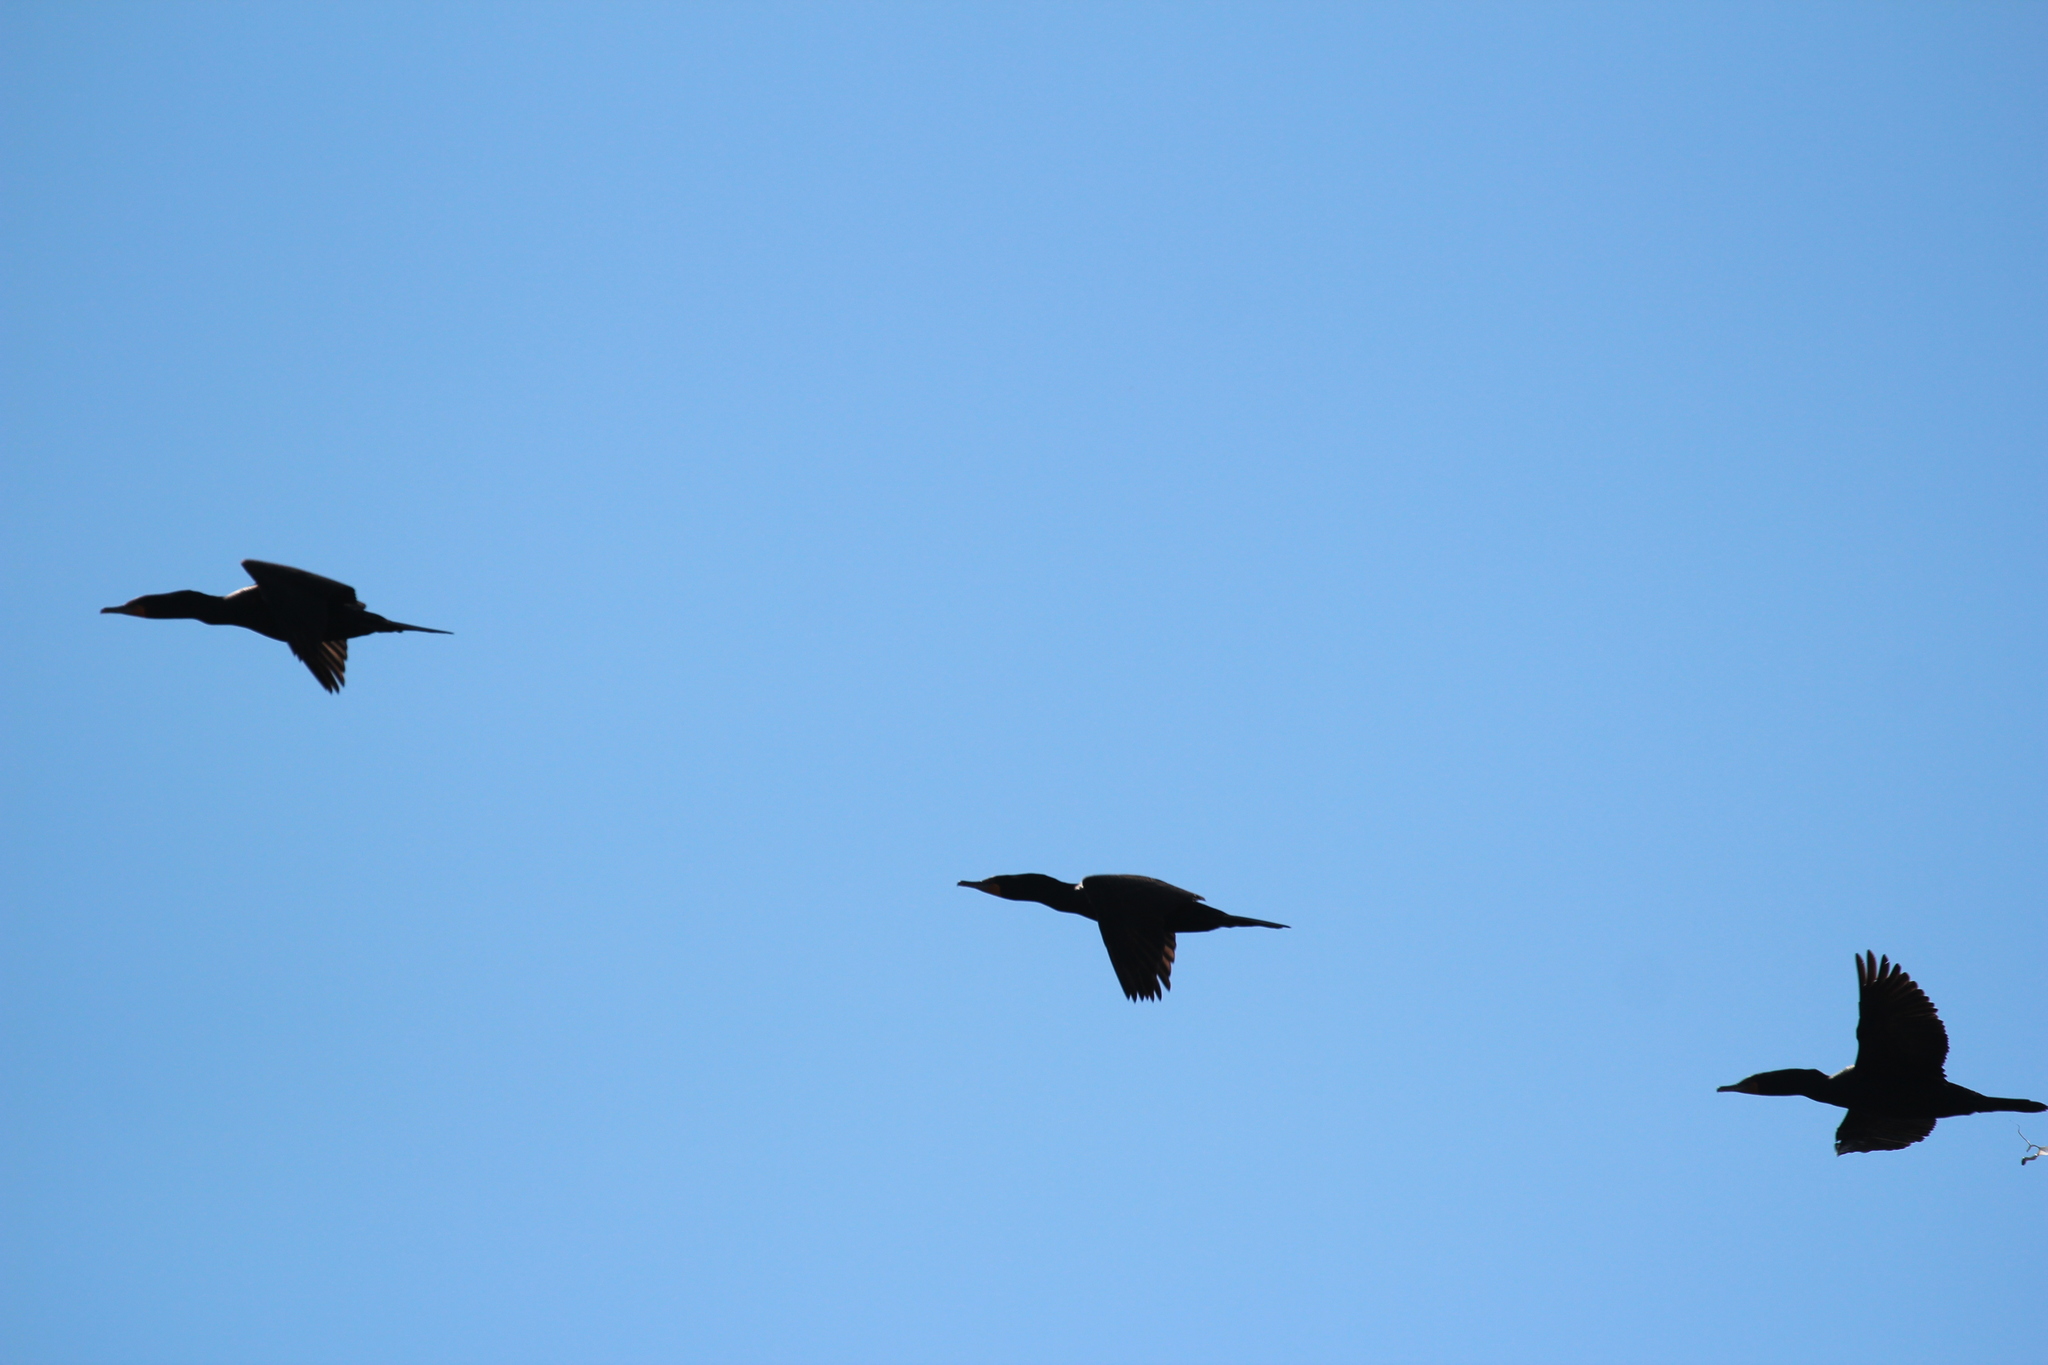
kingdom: Animalia
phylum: Chordata
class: Aves
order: Suliformes
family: Phalacrocoracidae
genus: Phalacrocorax
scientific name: Phalacrocorax auritus
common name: Double-crested cormorant
